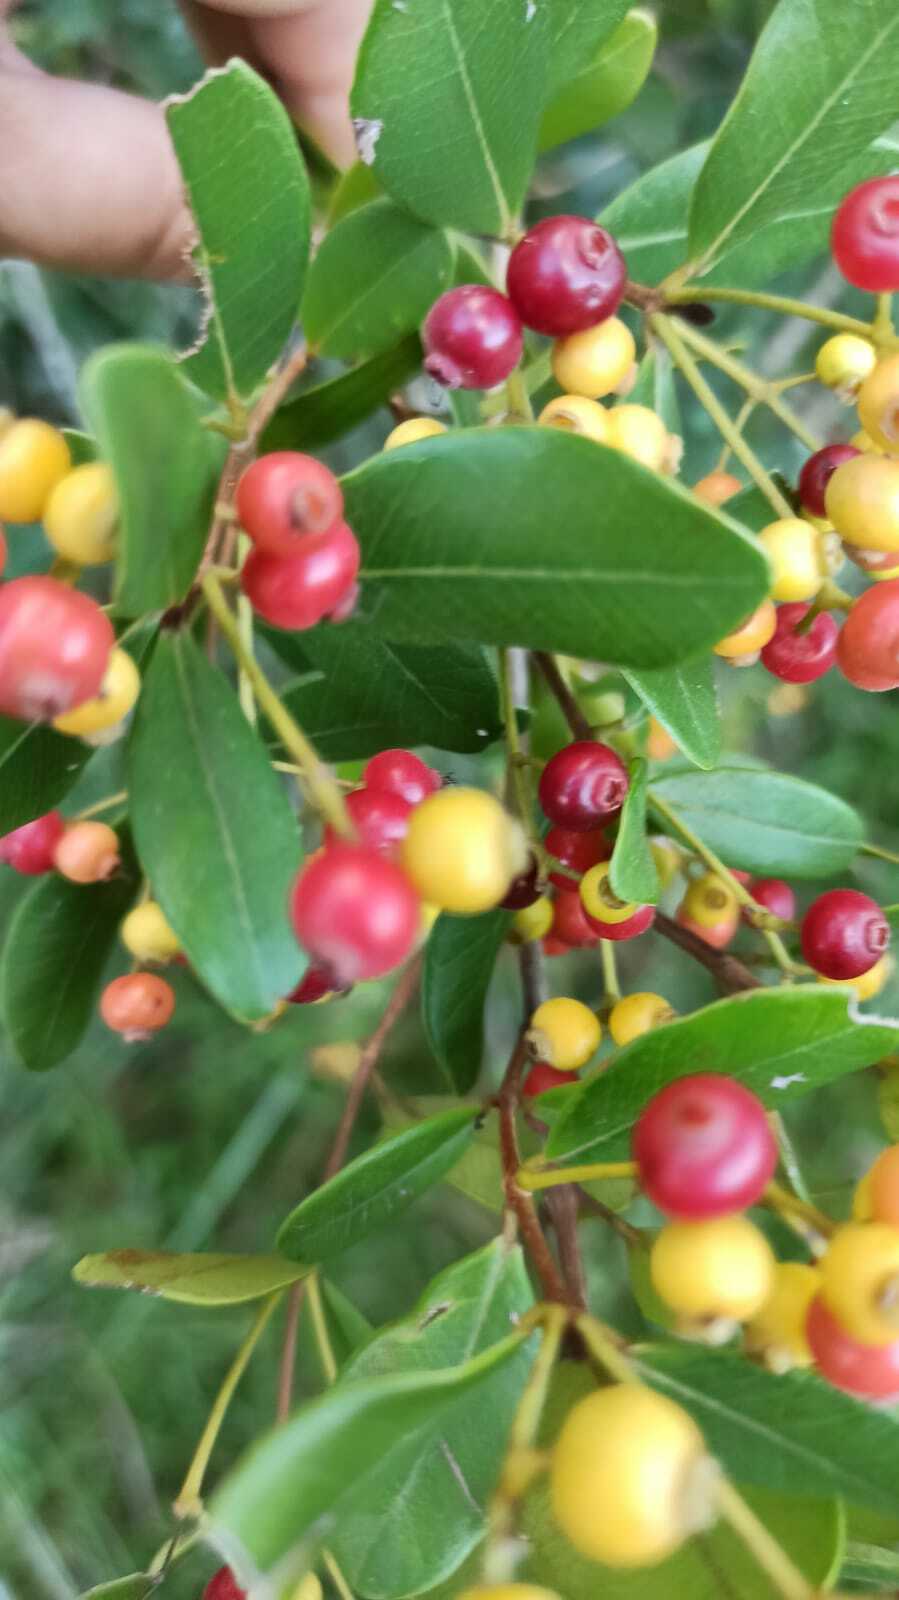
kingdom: Plantae
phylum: Tracheophyta
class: Magnoliopsida
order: Myrtales
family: Myrtaceae
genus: Myrcia
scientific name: Myrcia palustris
